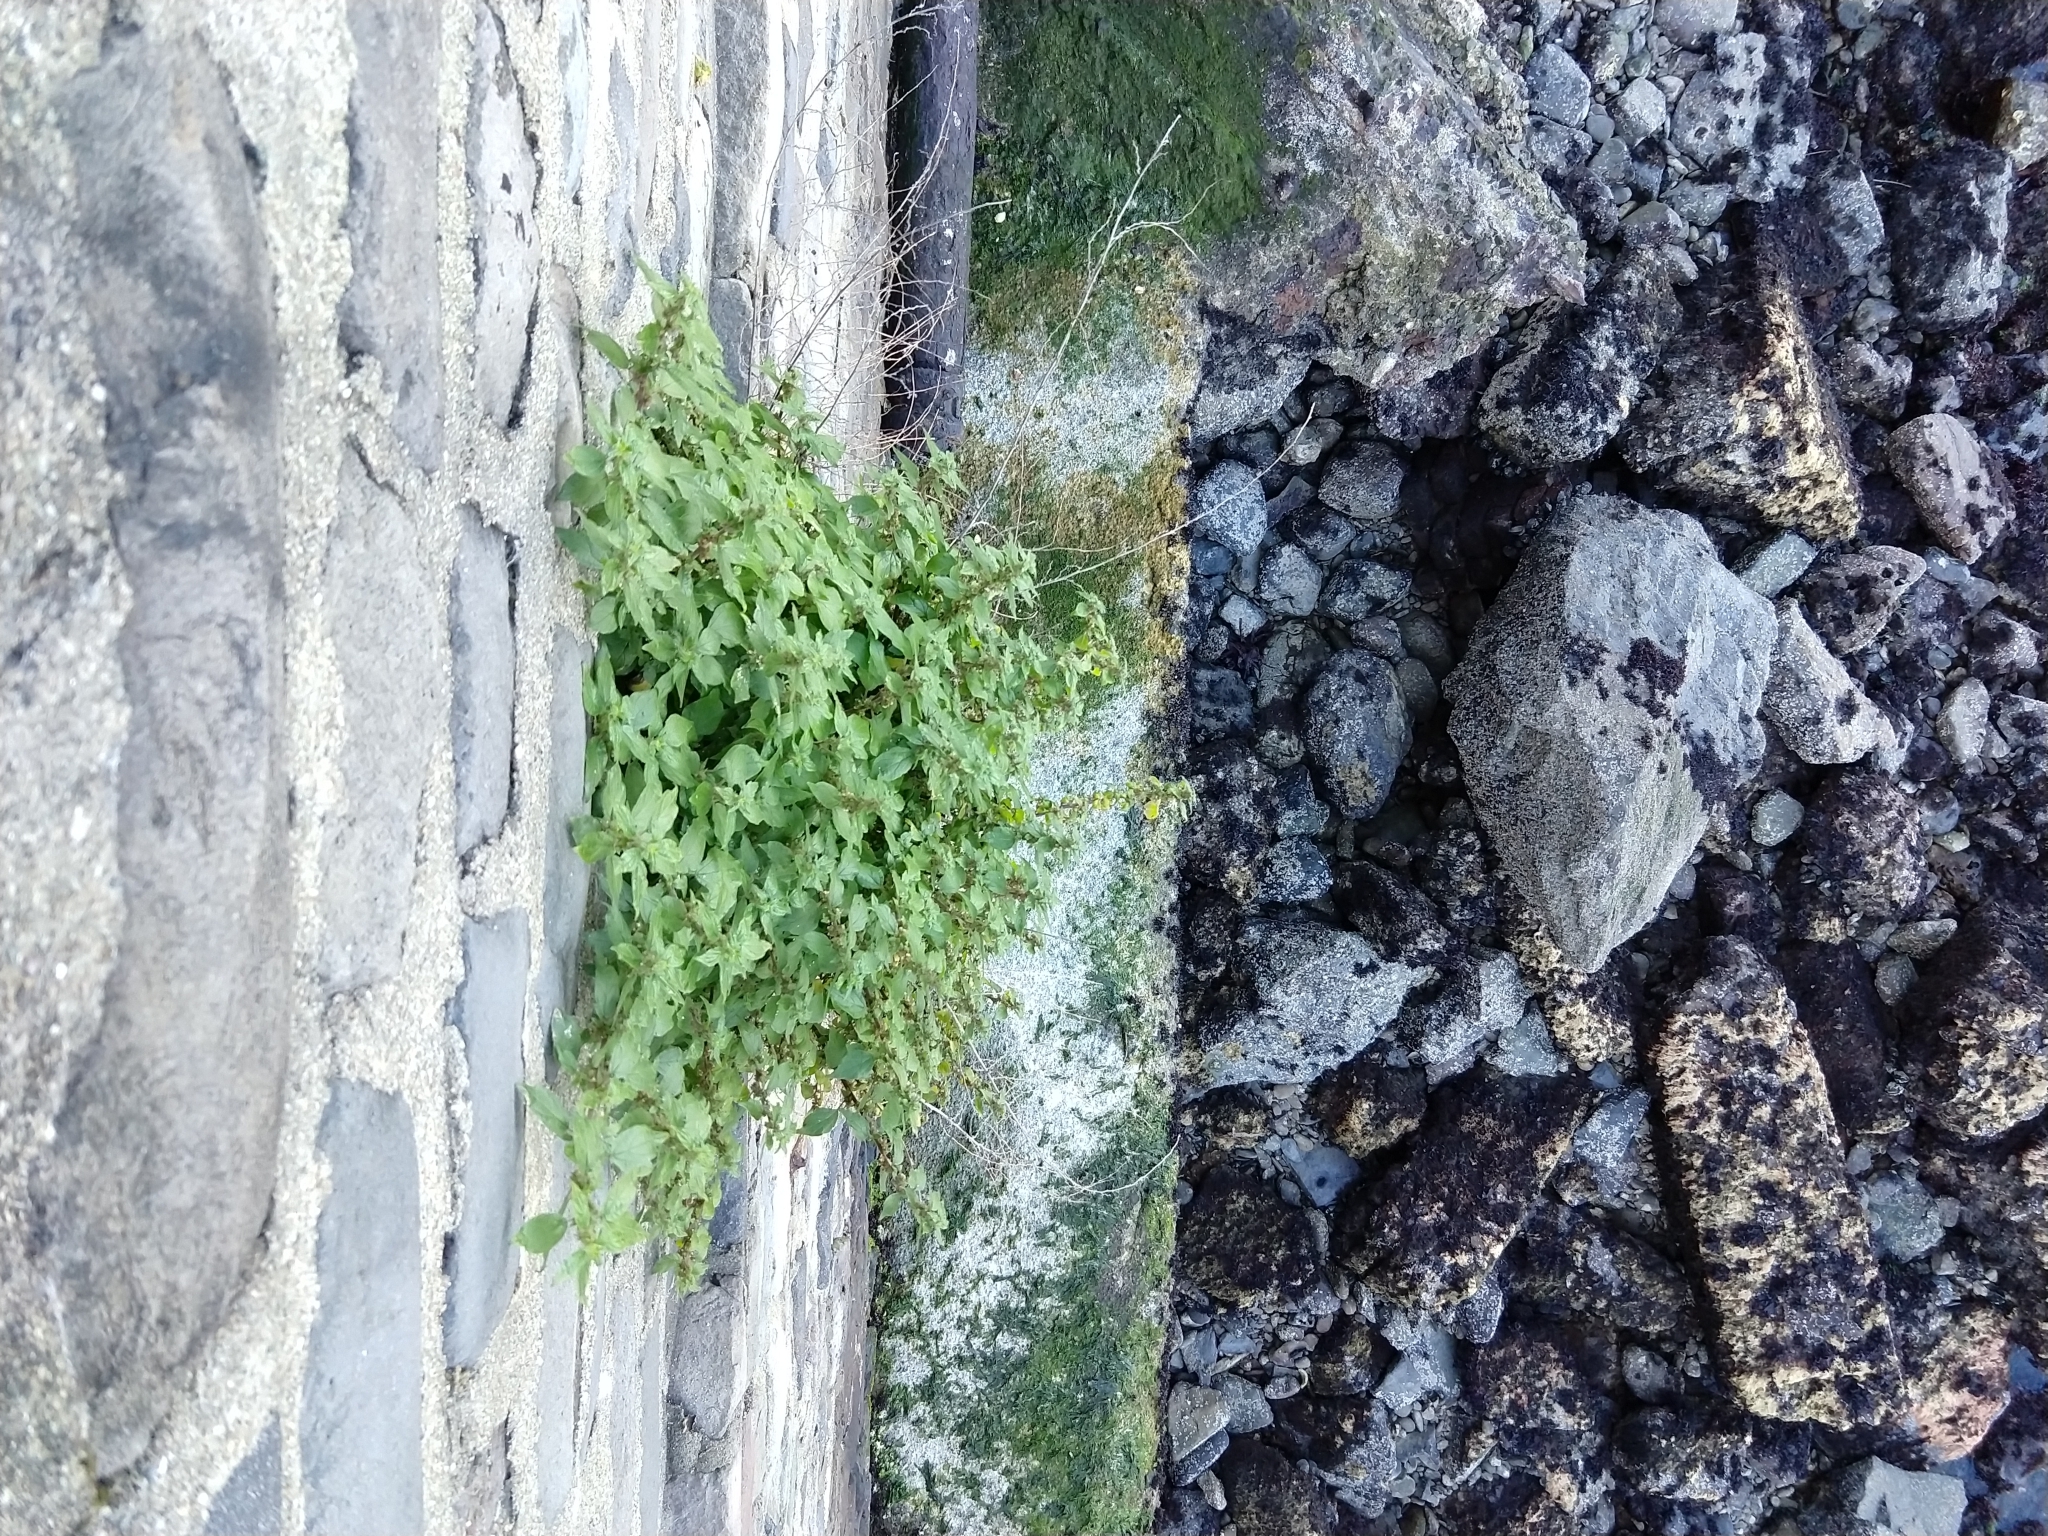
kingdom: Plantae
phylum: Tracheophyta
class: Magnoliopsida
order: Rosales
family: Urticaceae
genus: Parietaria
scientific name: Parietaria judaica
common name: Pellitory-of-the-wall
